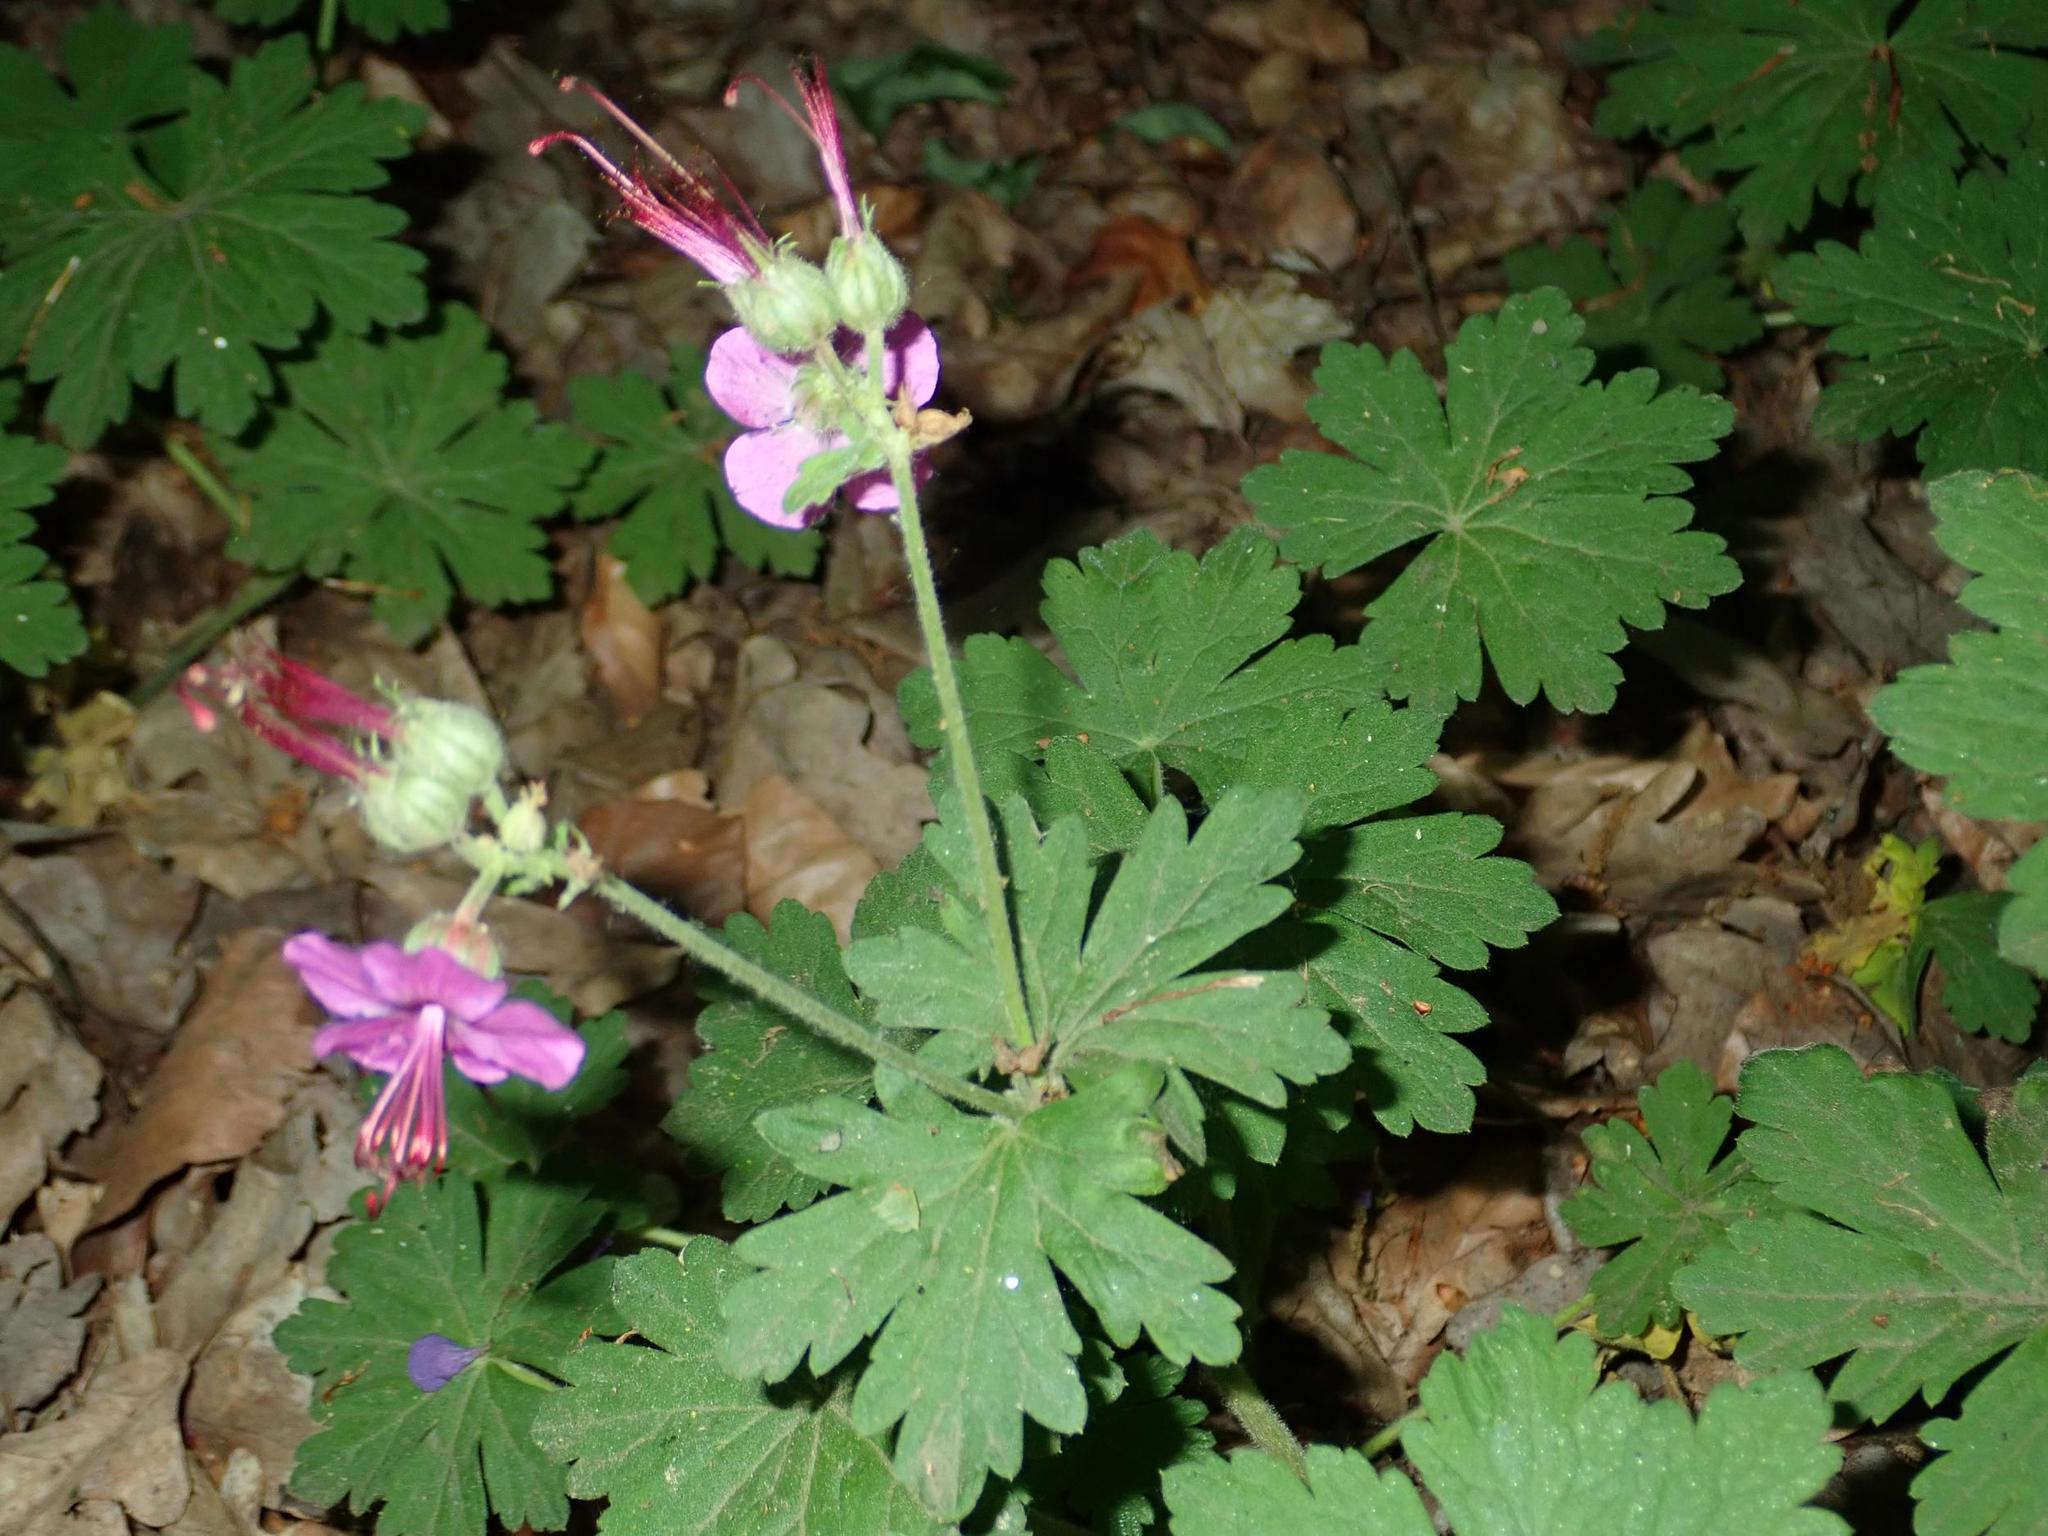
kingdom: Plantae
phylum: Tracheophyta
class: Magnoliopsida
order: Geraniales
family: Geraniaceae
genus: Geranium
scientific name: Geranium macrorrhizum
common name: Rock crane's-bill
